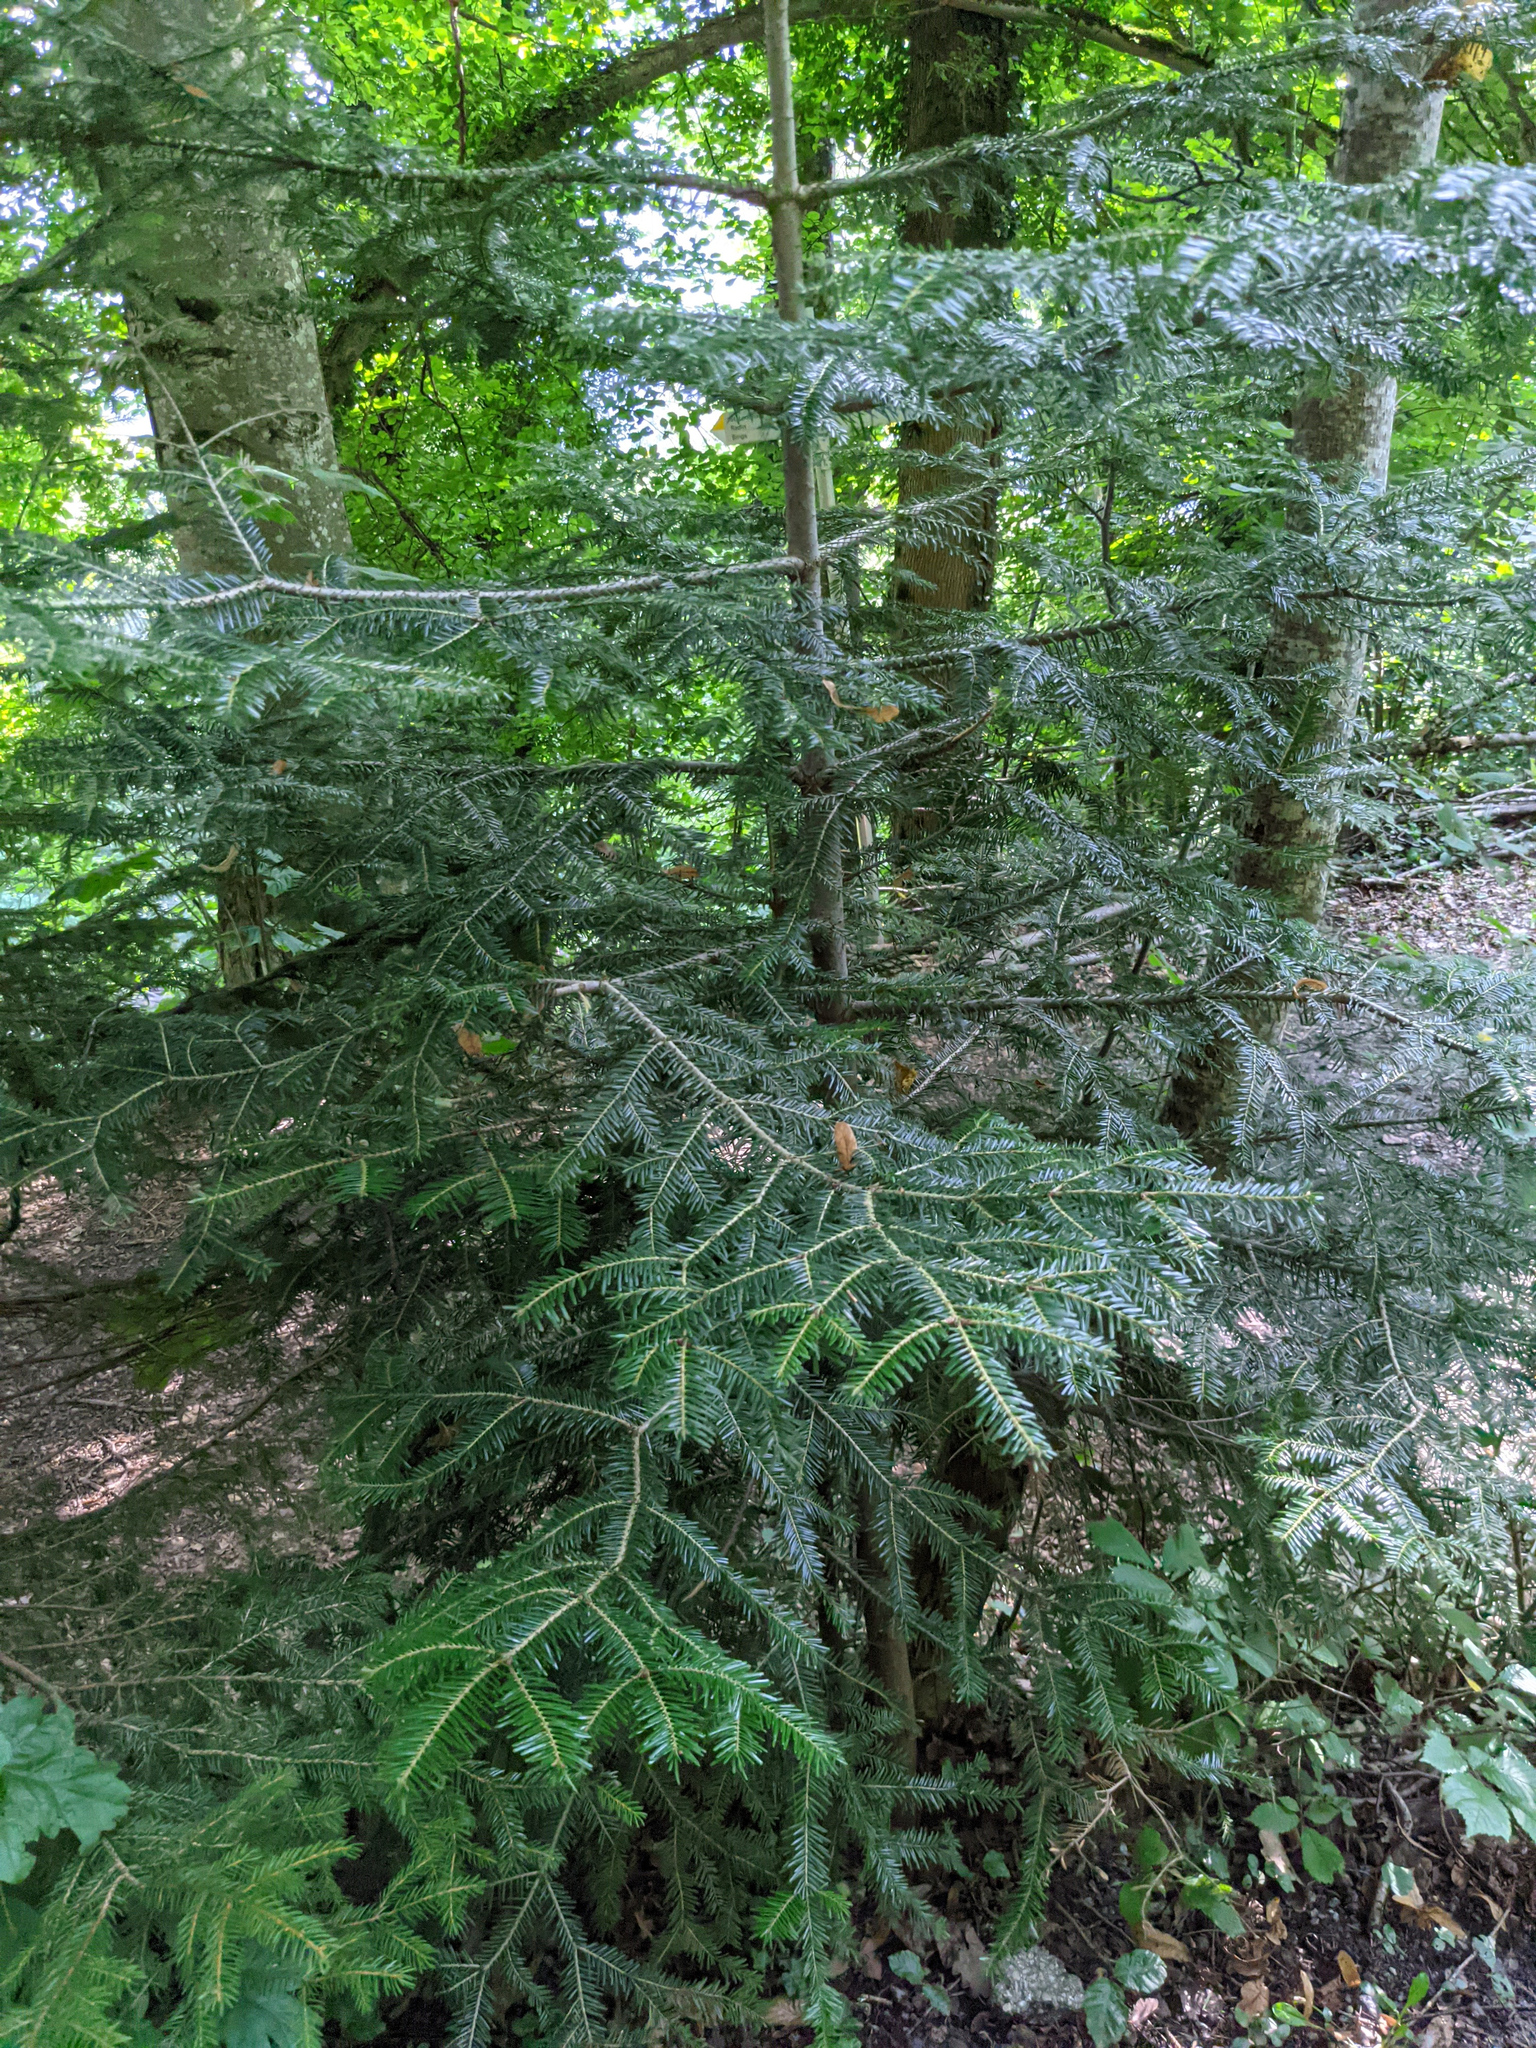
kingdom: Plantae
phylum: Tracheophyta
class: Pinopsida
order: Pinales
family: Pinaceae
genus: Abies
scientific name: Abies alba
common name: Silver fir
